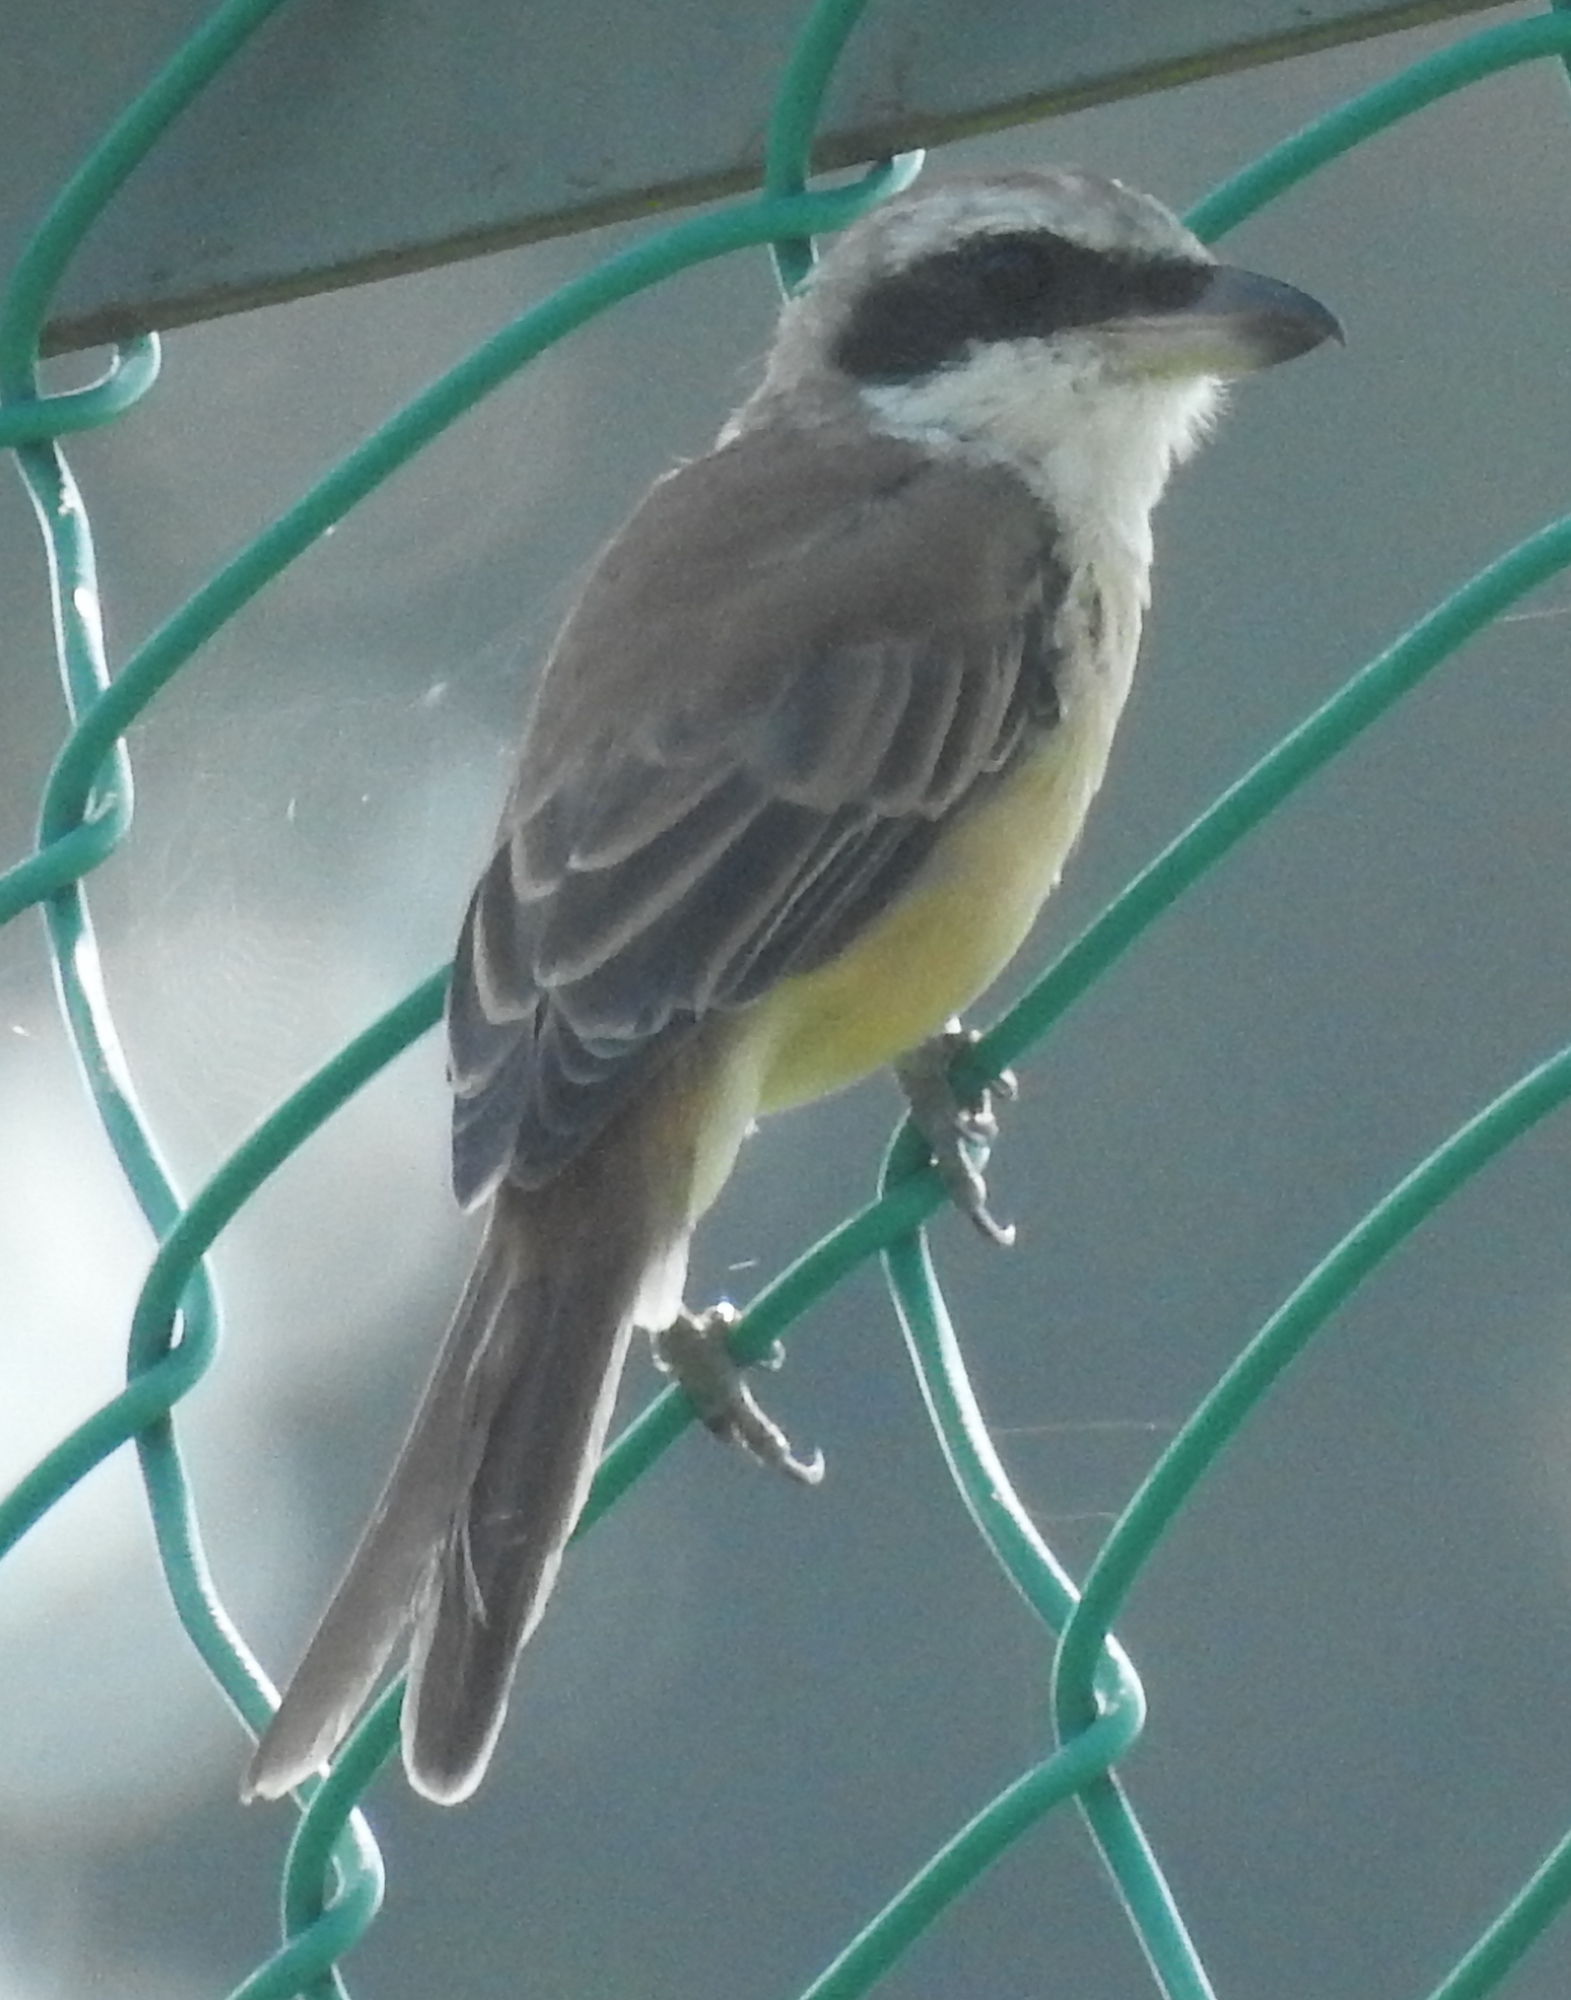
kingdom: Animalia
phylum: Chordata
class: Aves
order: Passeriformes
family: Laniidae
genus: Lanius
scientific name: Lanius cristatus
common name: Brown shrike
